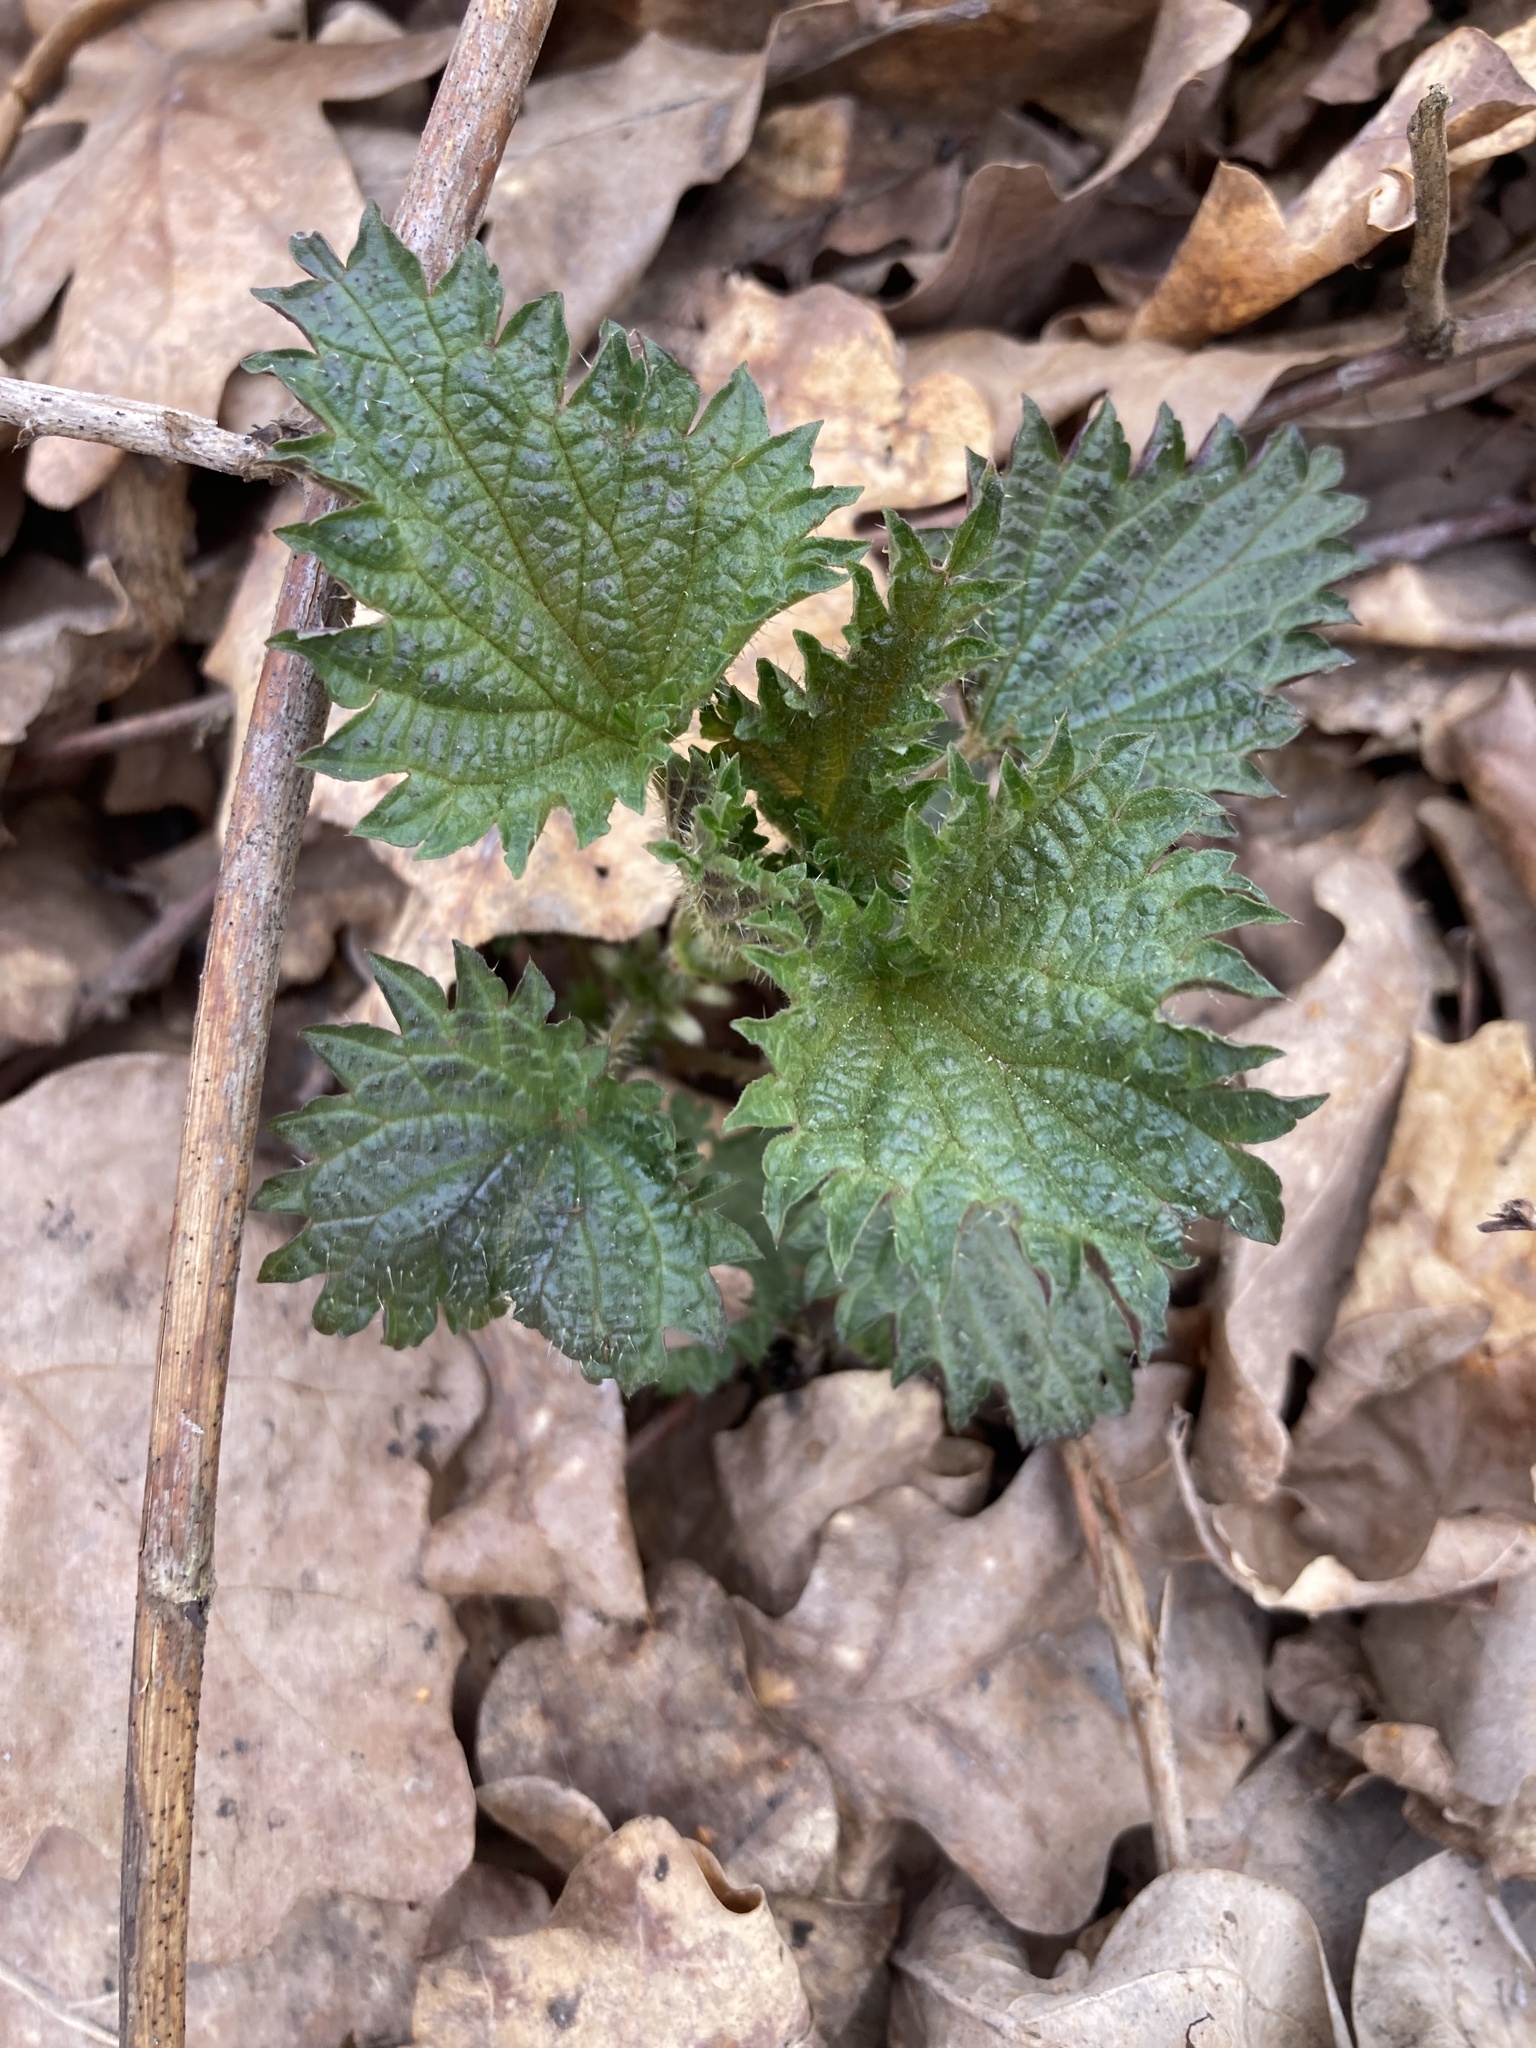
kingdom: Plantae
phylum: Tracheophyta
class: Magnoliopsida
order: Rosales
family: Urticaceae
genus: Urtica
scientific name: Urtica dioica
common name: Common nettle
